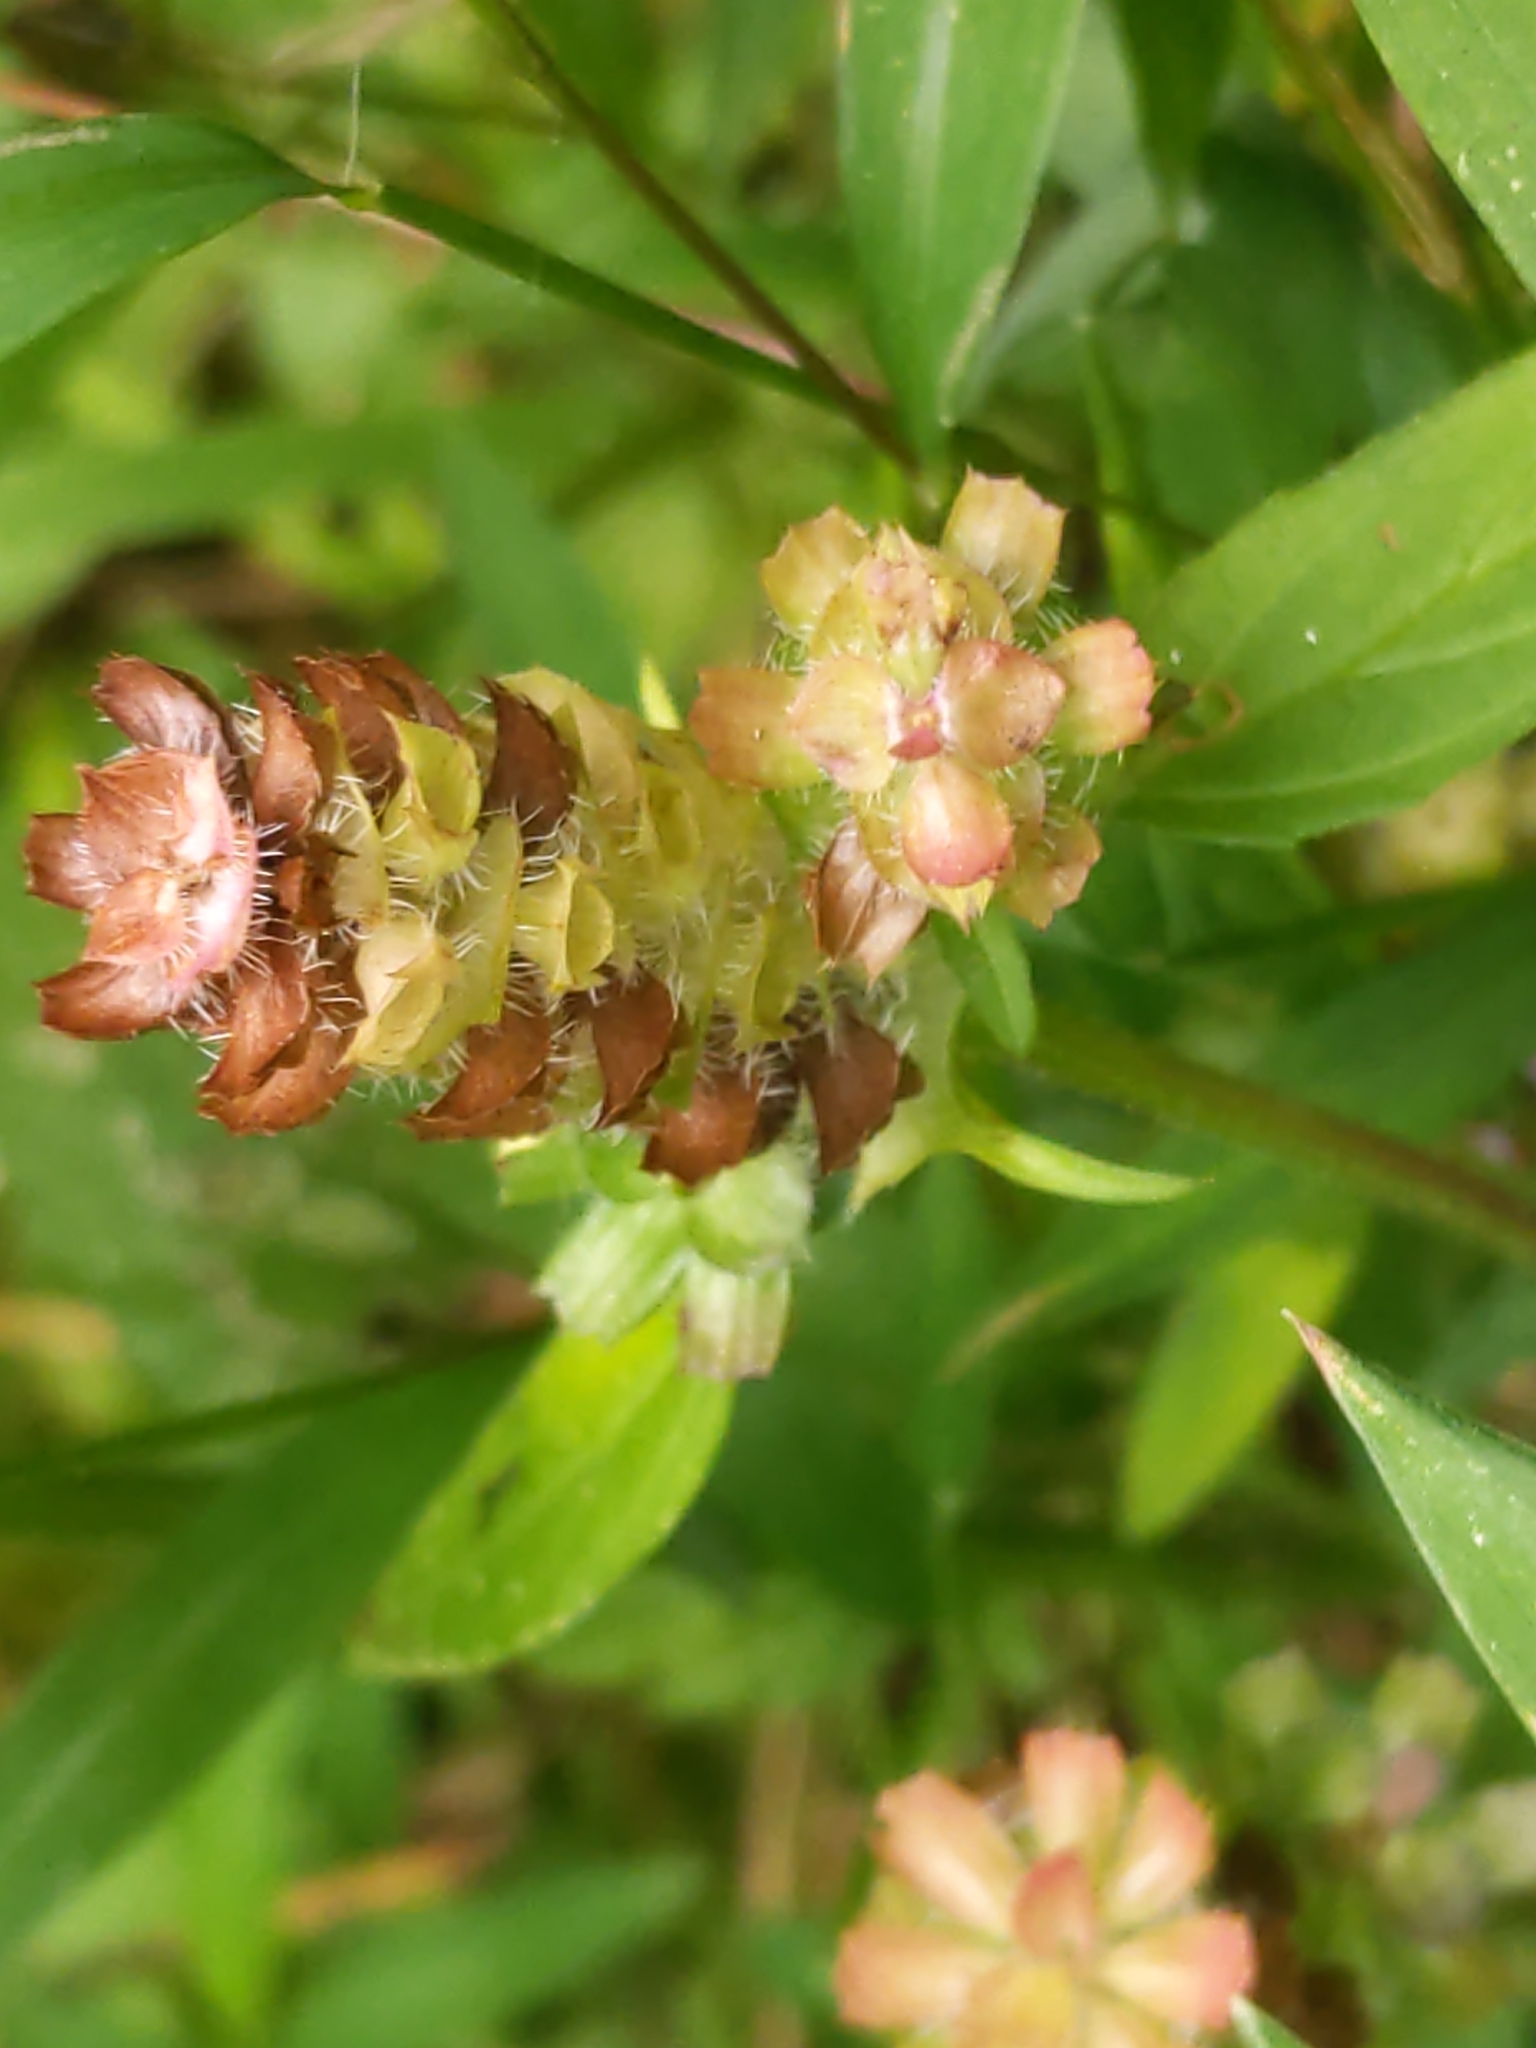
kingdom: Plantae
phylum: Tracheophyta
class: Magnoliopsida
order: Lamiales
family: Lamiaceae
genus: Prunella
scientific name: Prunella vulgaris
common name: Heal-all
